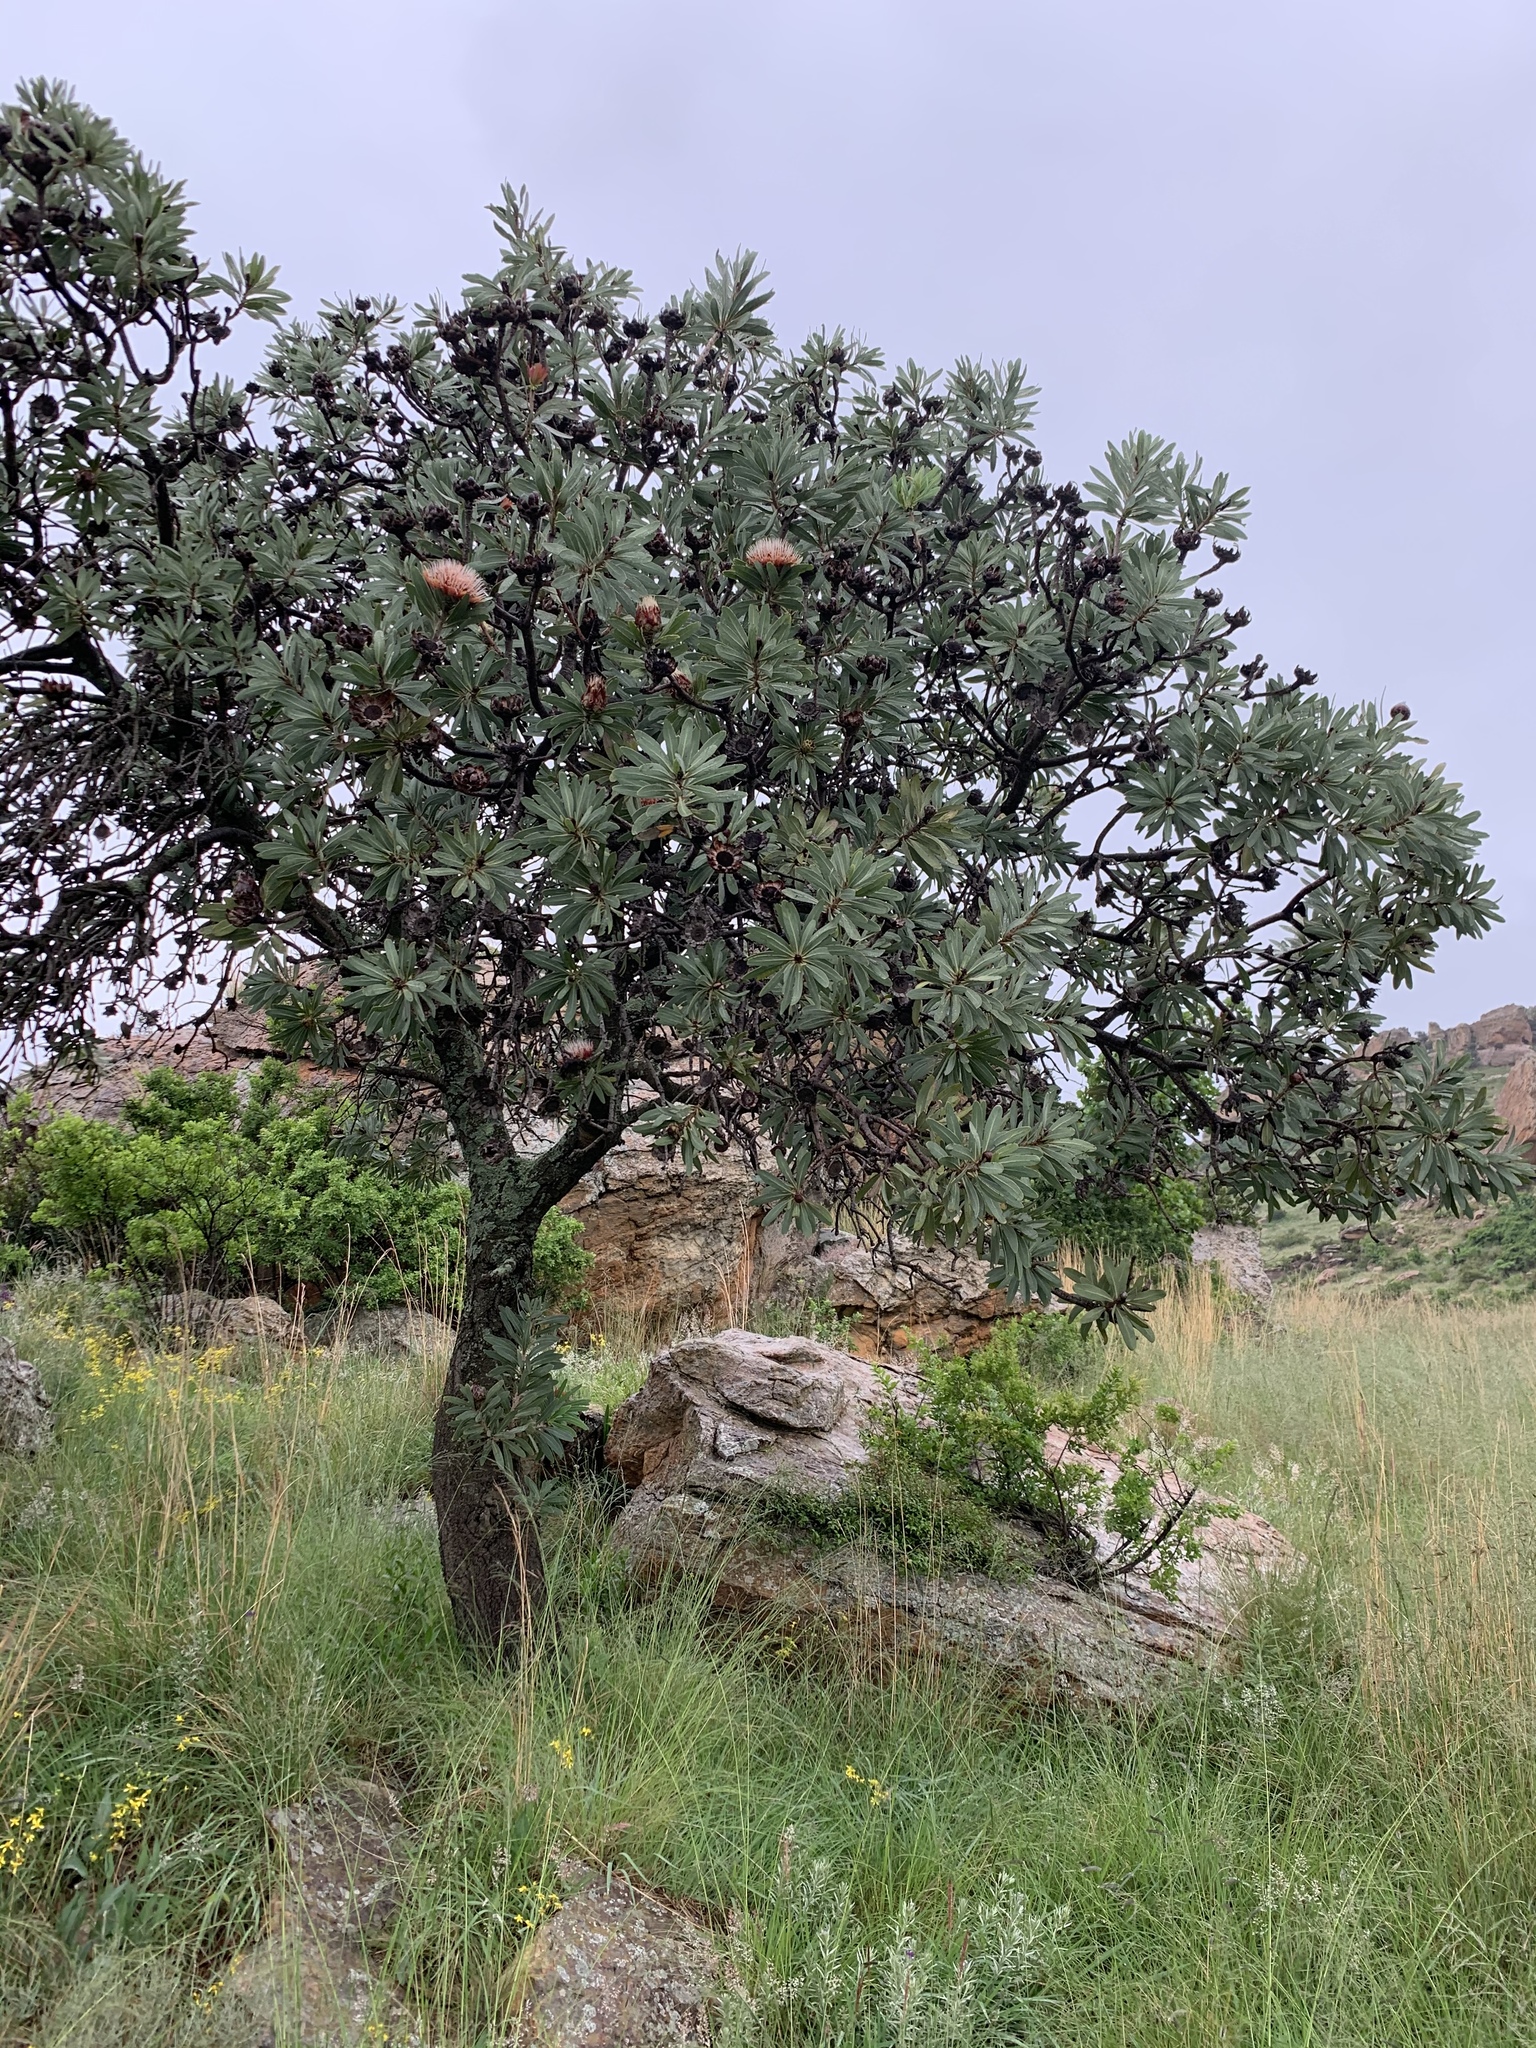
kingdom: Plantae
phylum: Tracheophyta
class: Magnoliopsida
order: Proteales
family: Proteaceae
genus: Protea
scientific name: Protea caffra
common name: Common sugarbush
